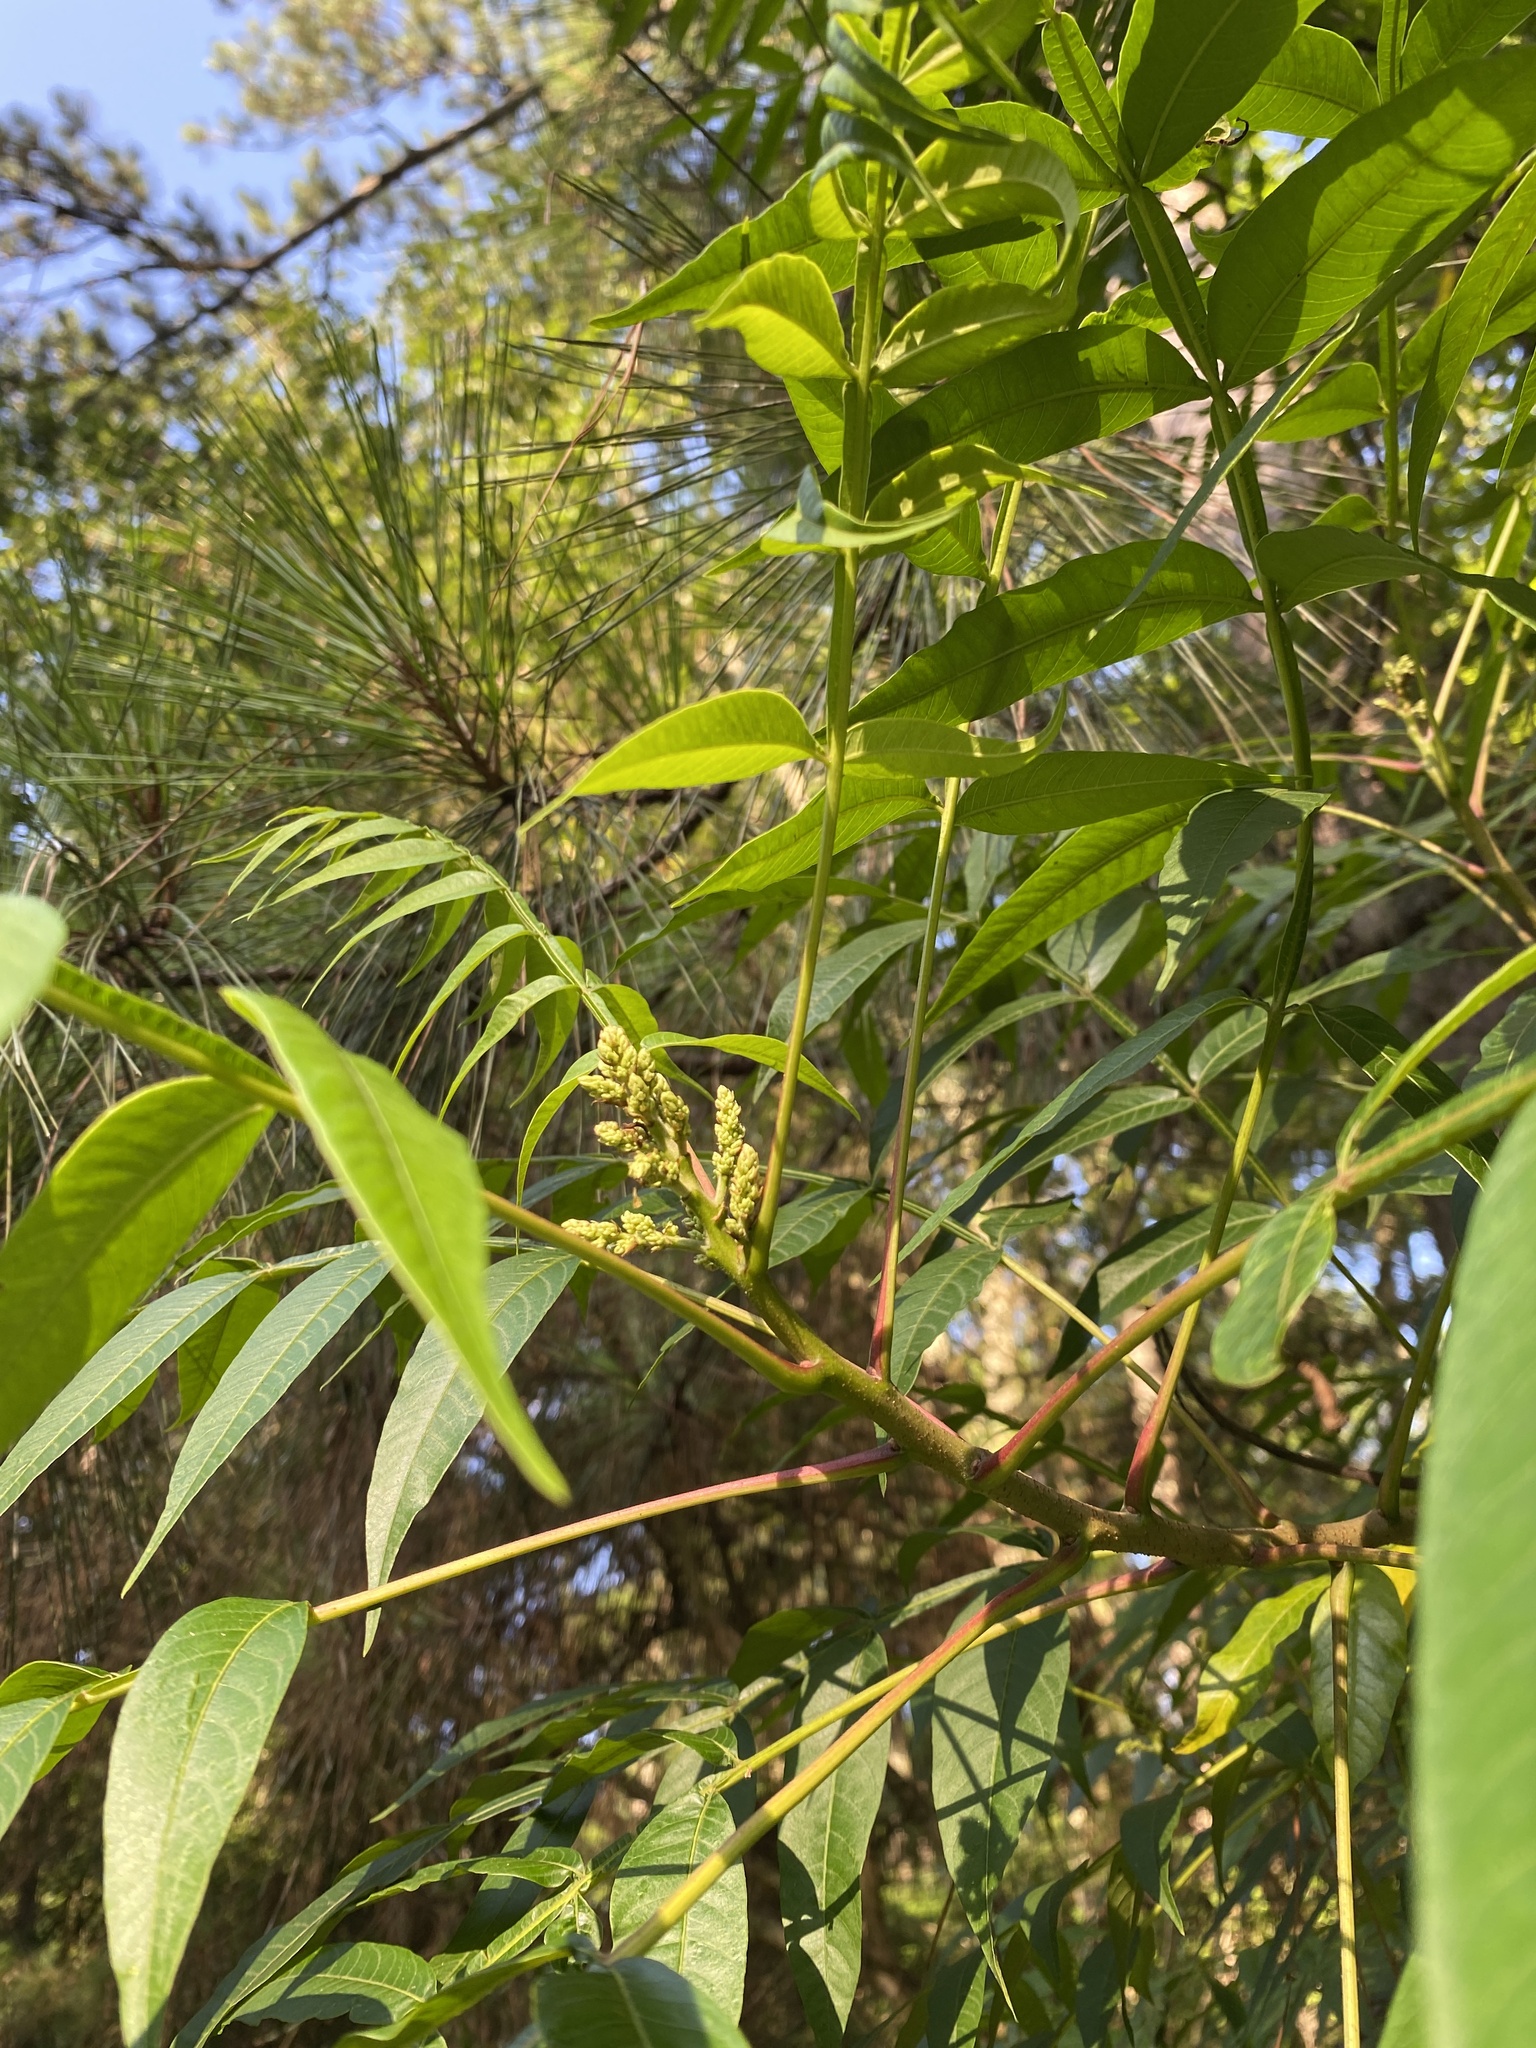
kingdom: Plantae
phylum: Tracheophyta
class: Magnoliopsida
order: Sapindales
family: Anacardiaceae
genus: Rhus
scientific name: Rhus copallina
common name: Shining sumac
